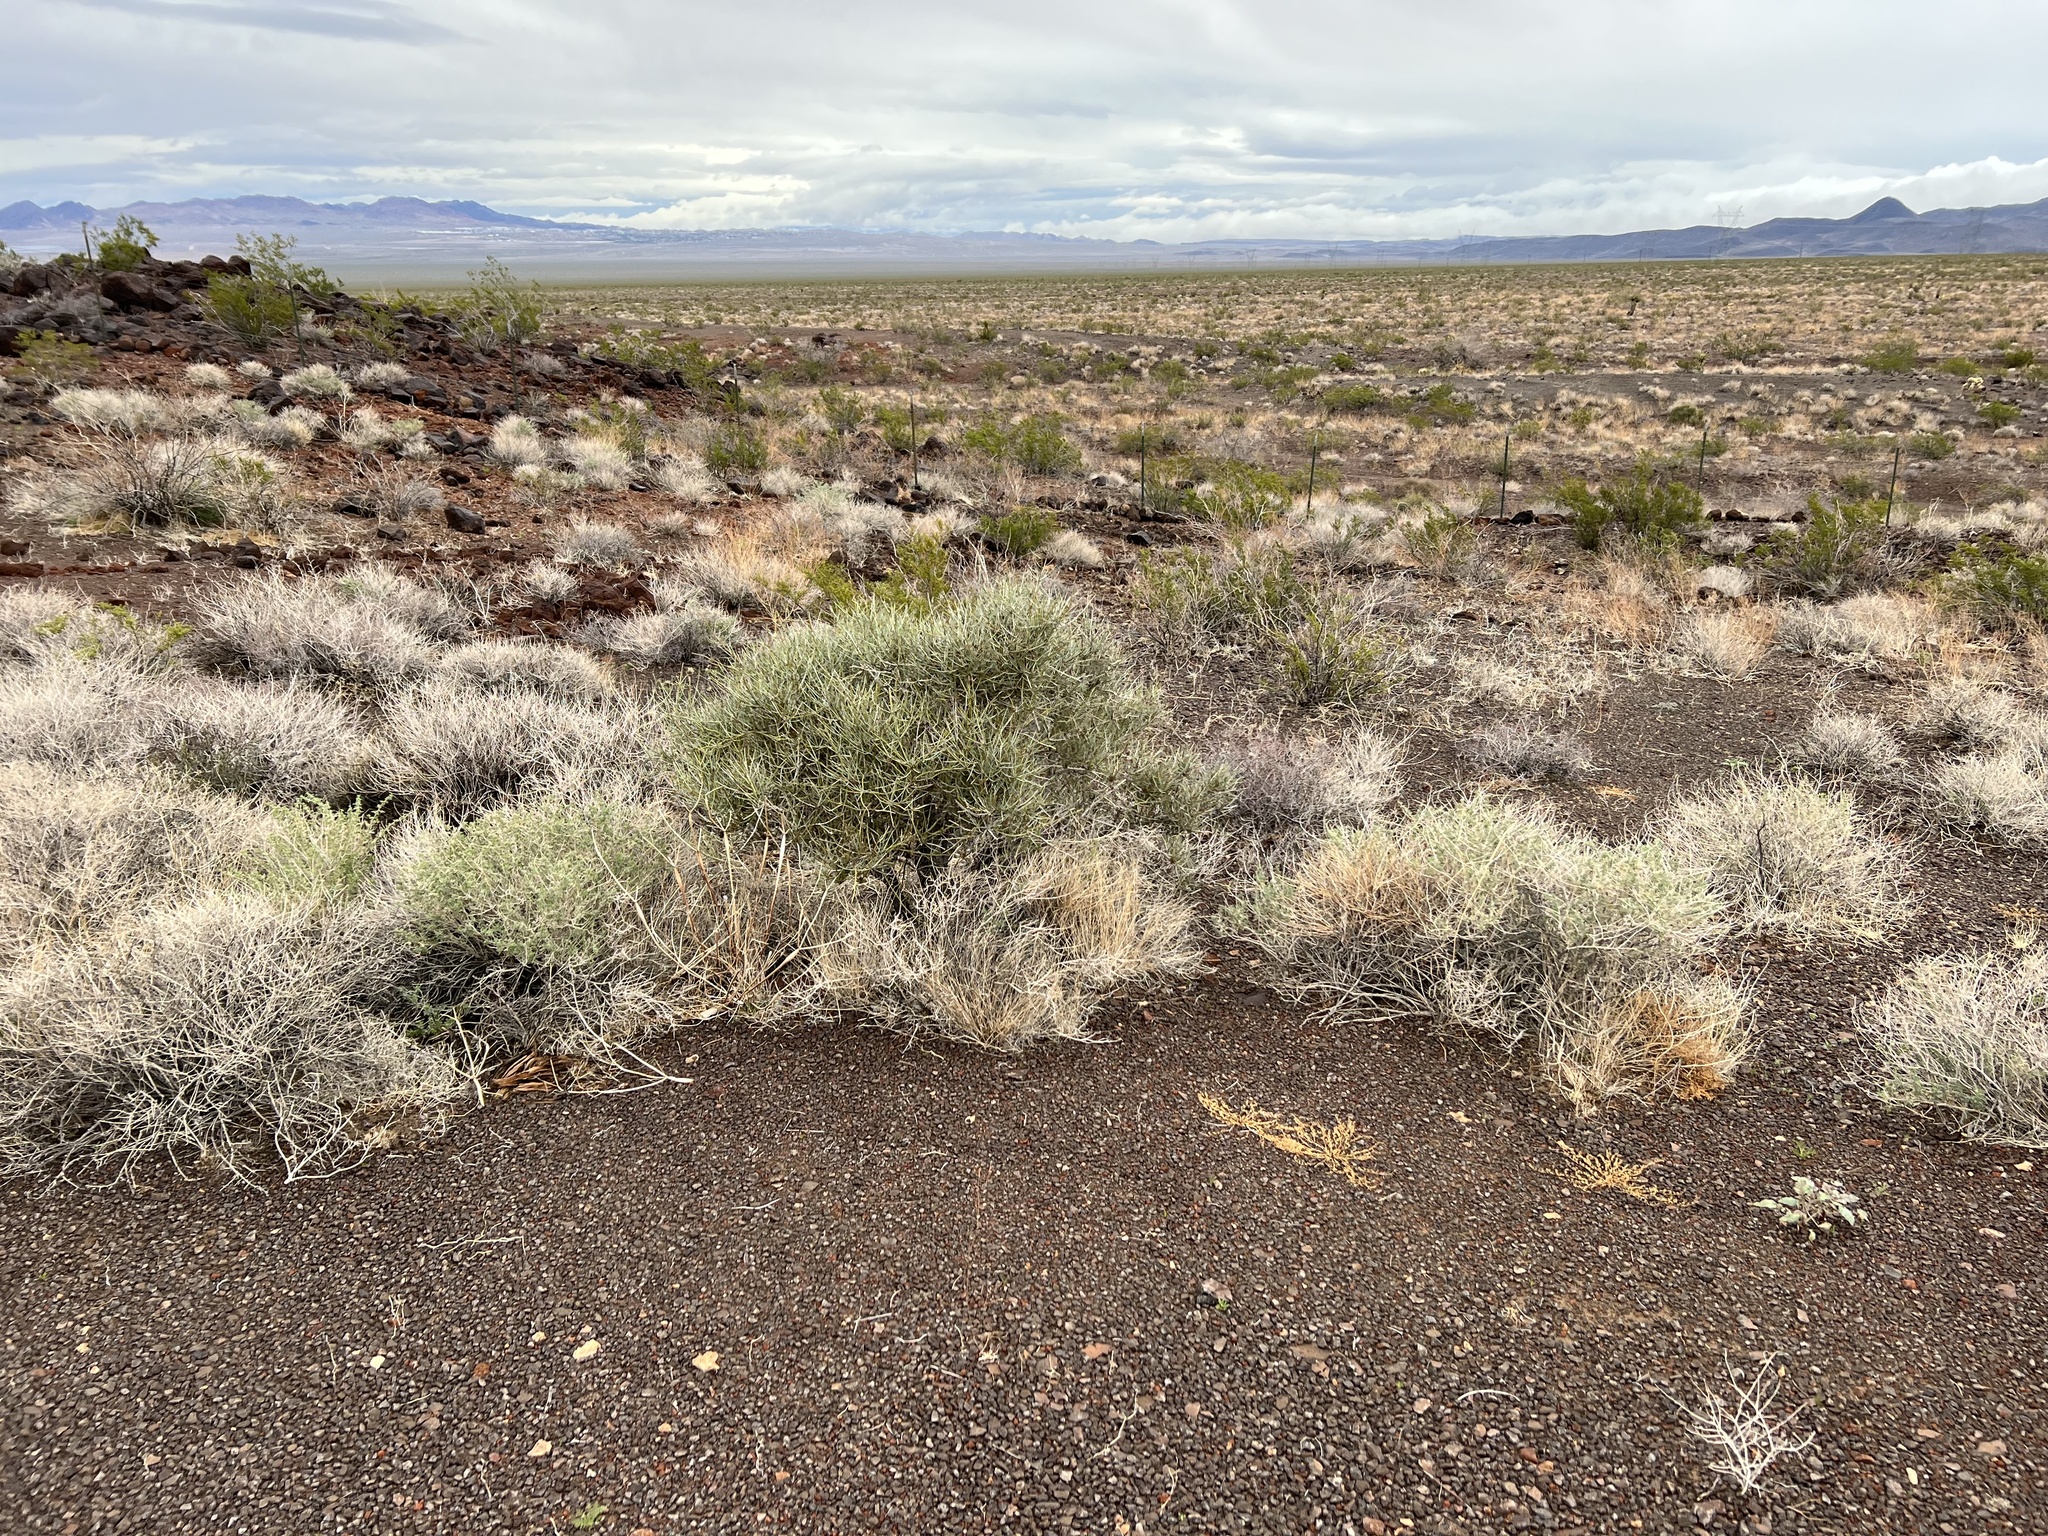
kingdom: Plantae
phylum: Tracheophyta
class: Gnetopsida
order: Ephedrales
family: Ephedraceae
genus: Ephedra
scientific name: Ephedra nevadensis
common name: Gray ephedra
